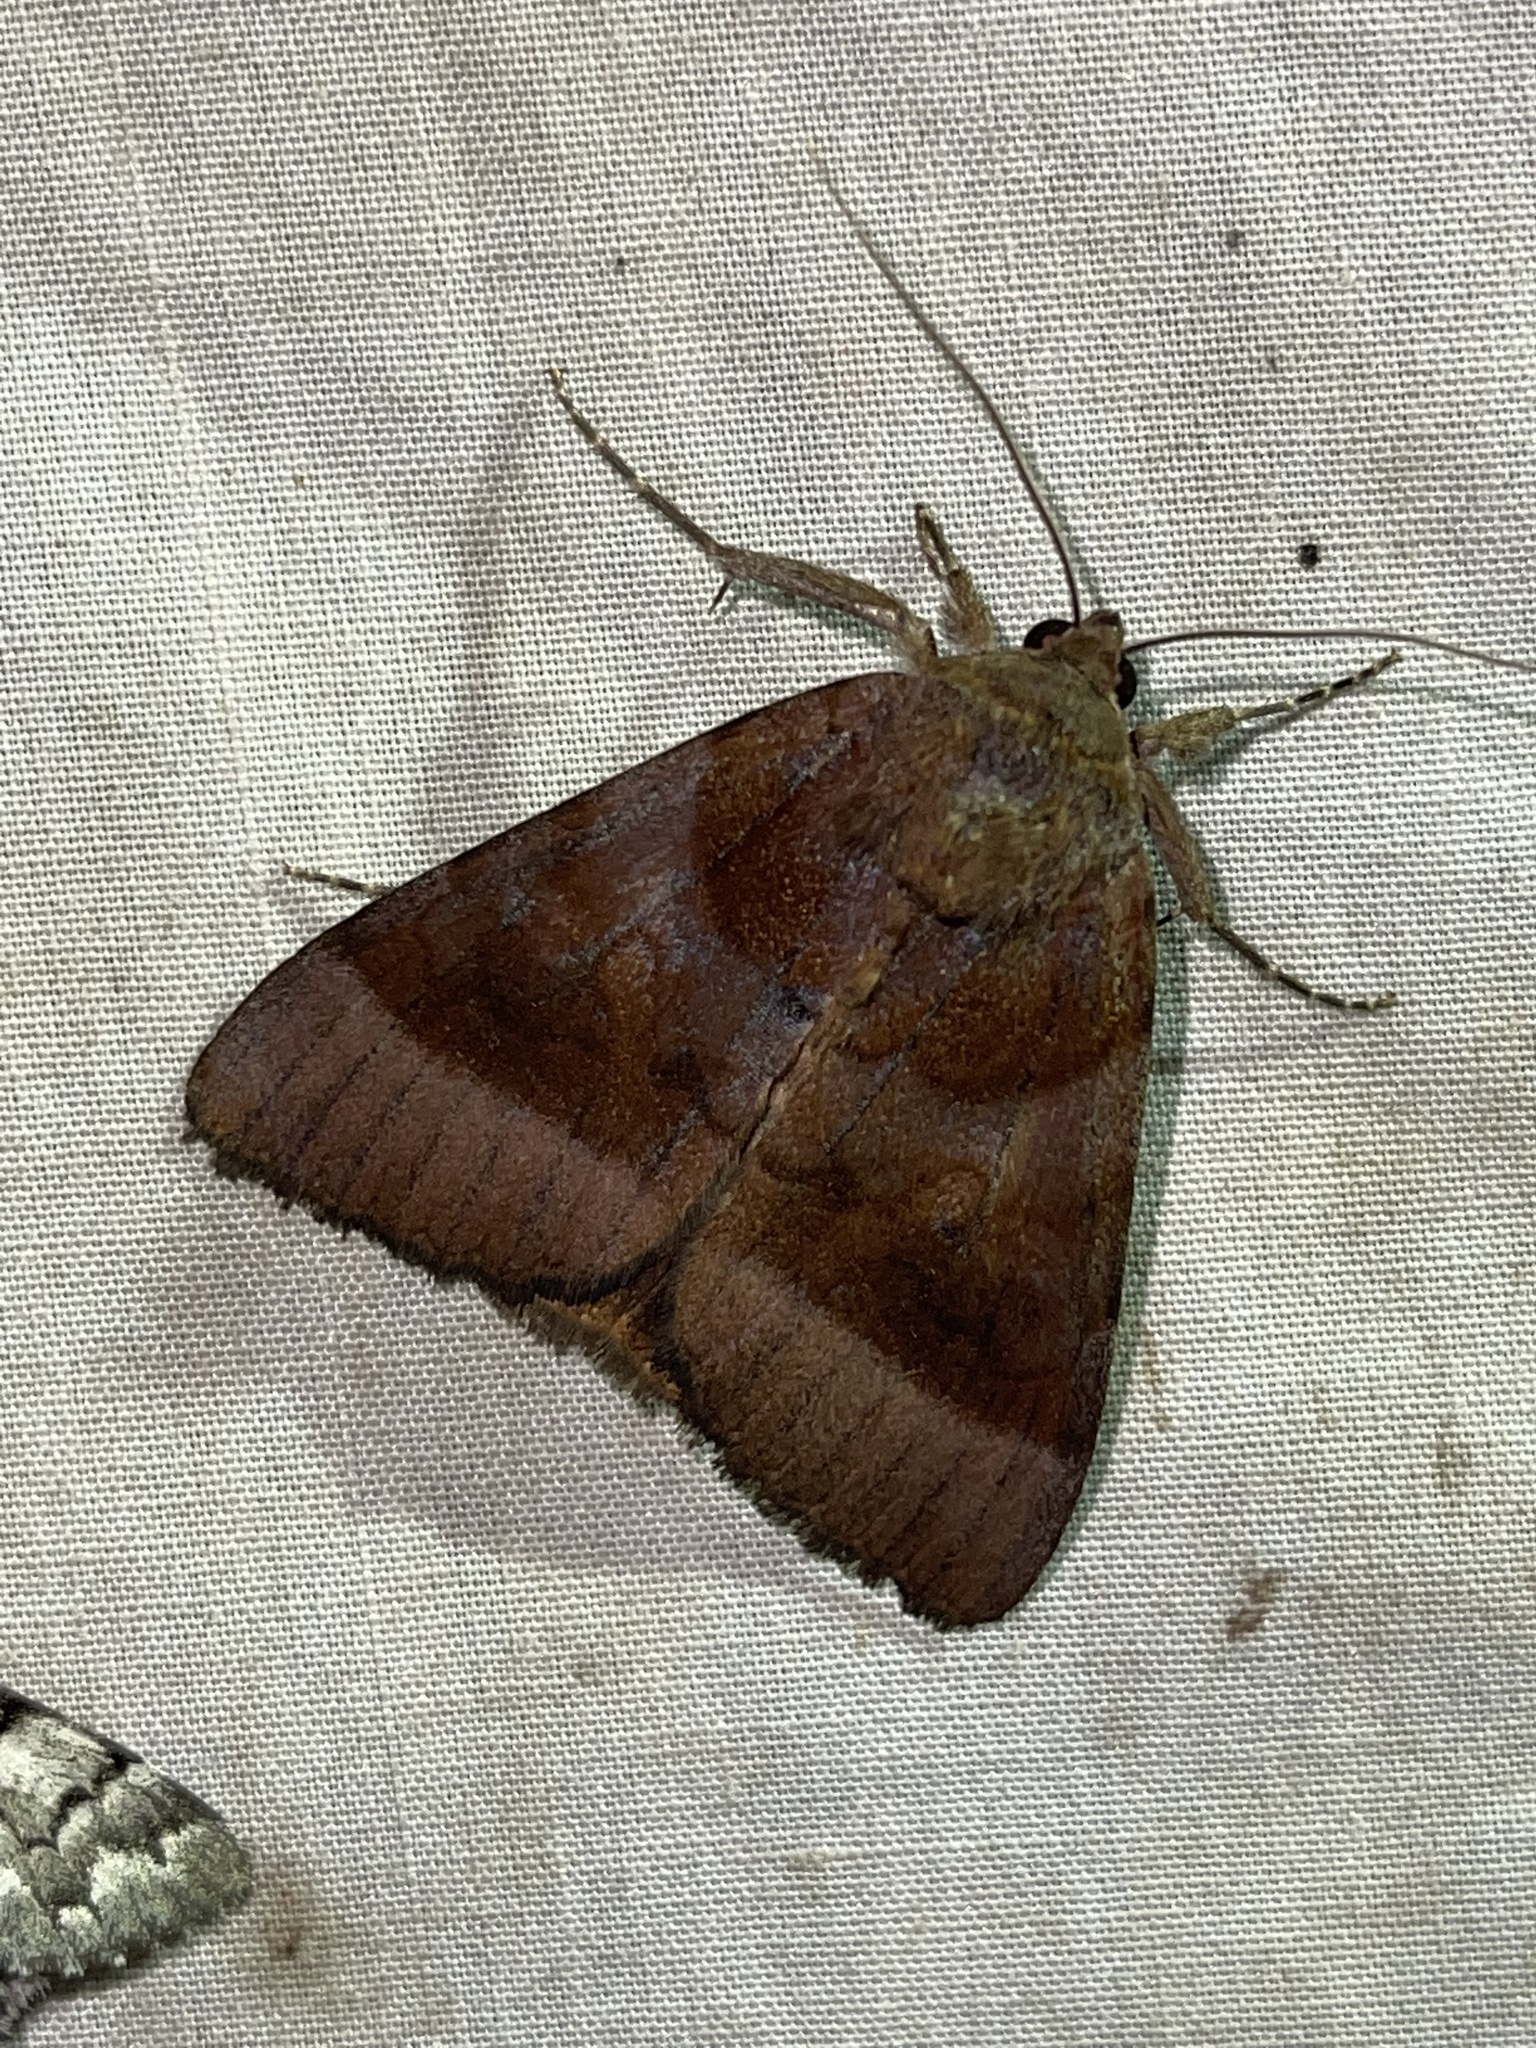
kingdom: Animalia
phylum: Arthropoda
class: Insecta
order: Lepidoptera
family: Erebidae
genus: Catocala
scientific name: Catocala badia
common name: Bay underwing
